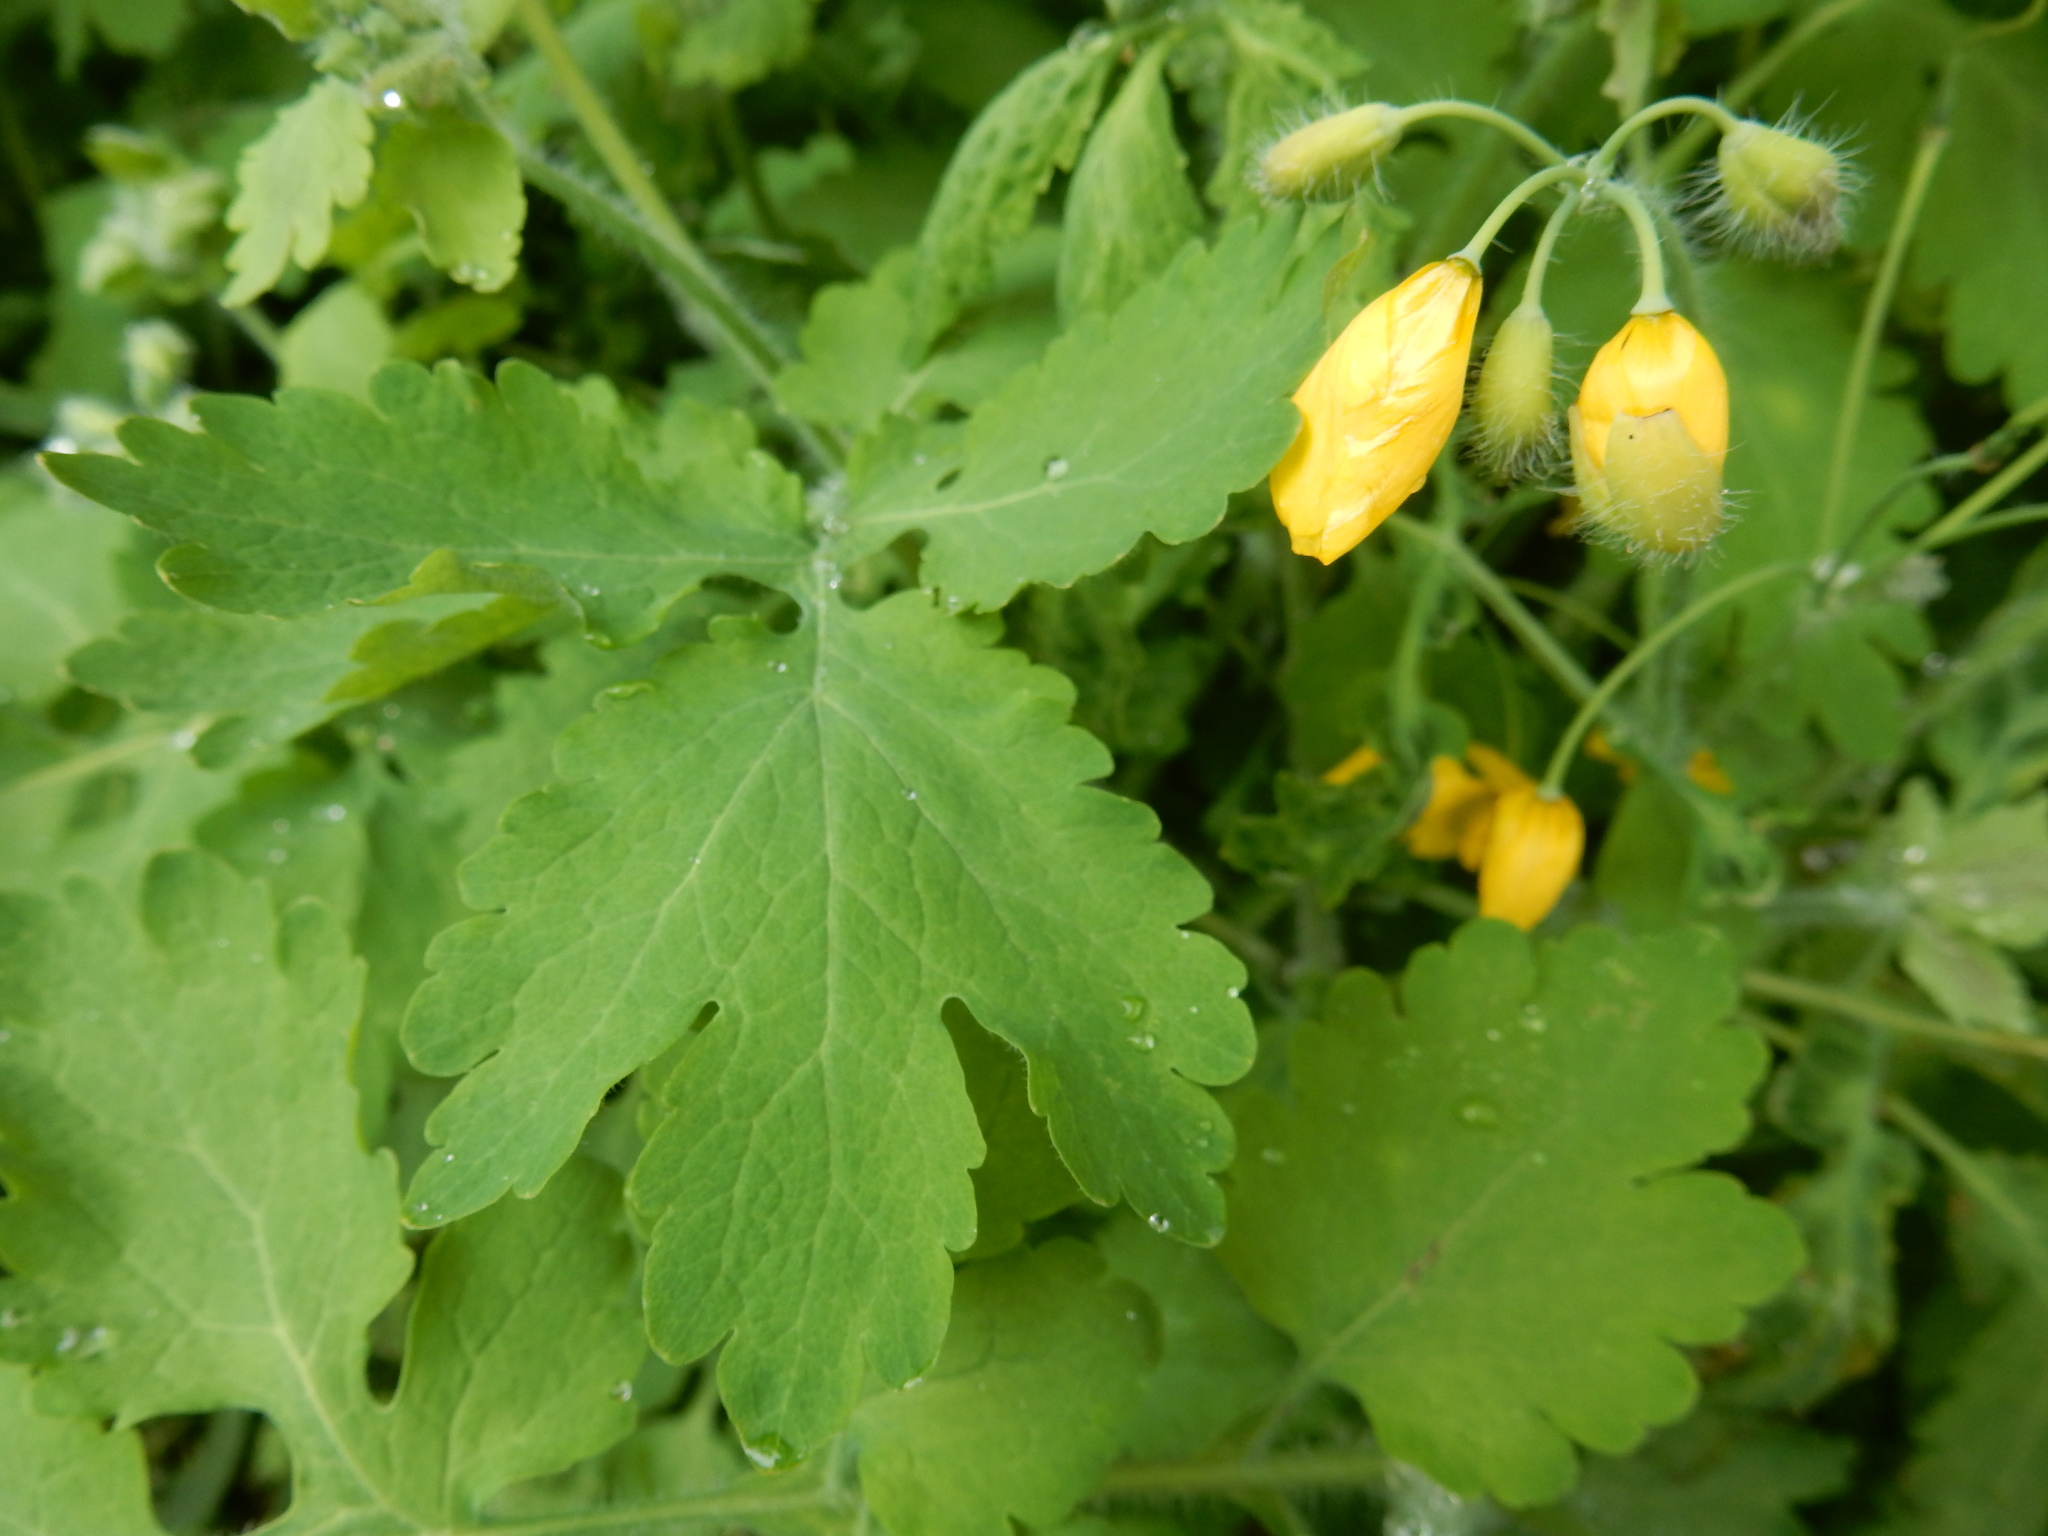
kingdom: Plantae
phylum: Tracheophyta
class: Magnoliopsida
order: Ranunculales
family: Papaveraceae
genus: Chelidonium
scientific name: Chelidonium majus
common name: Greater celandine
